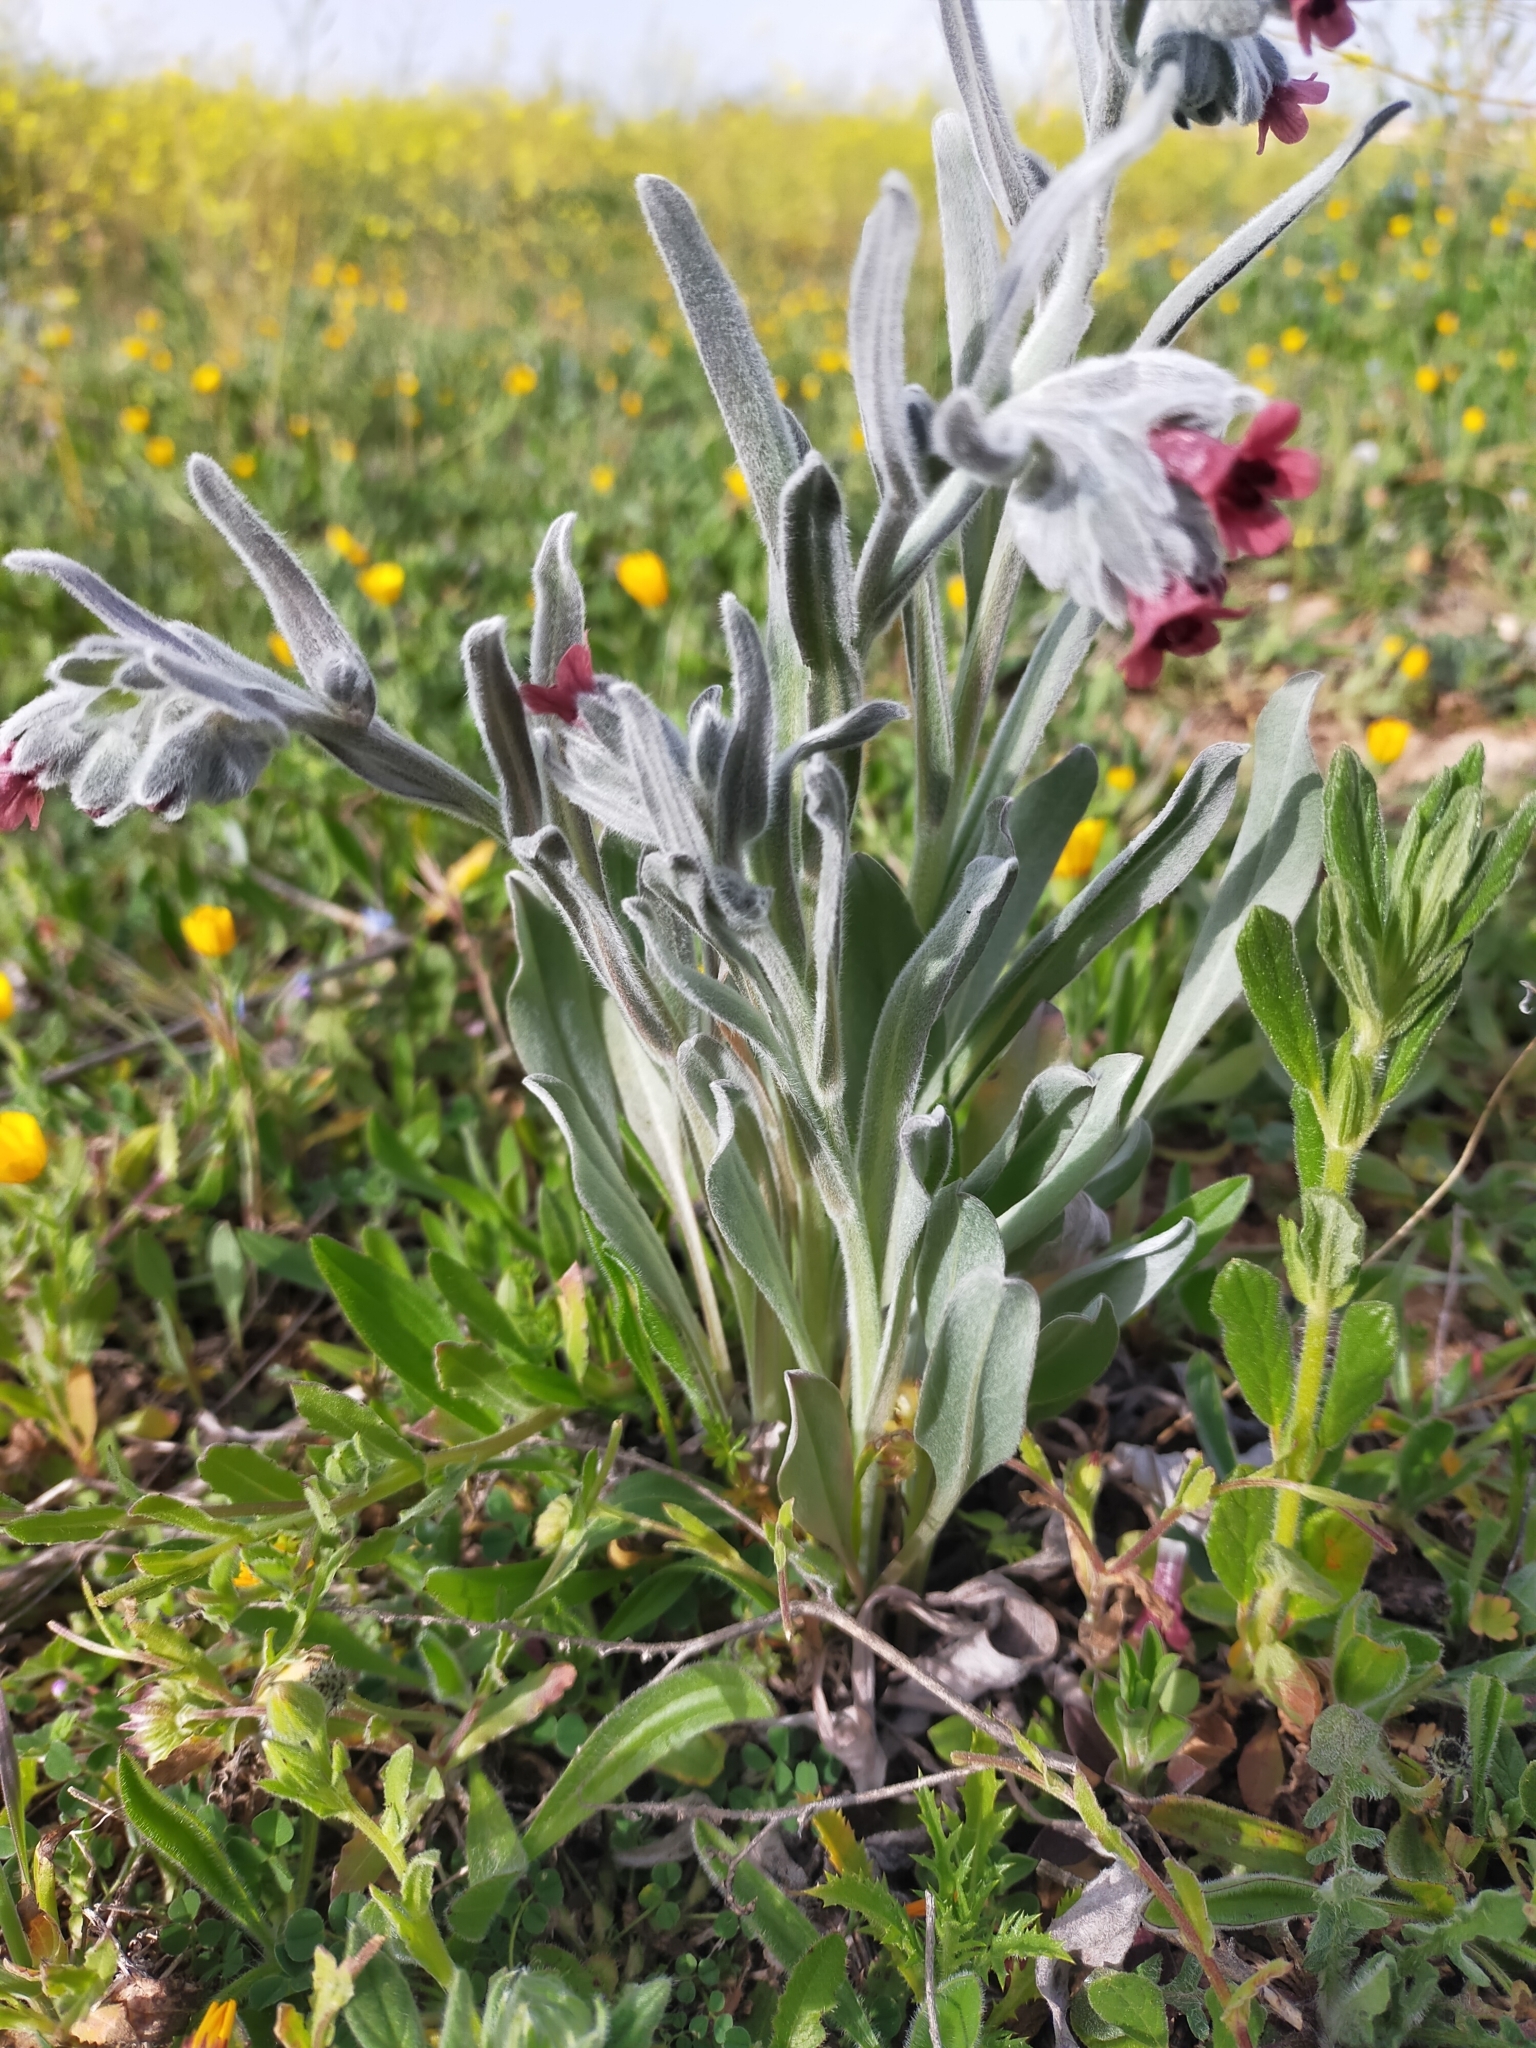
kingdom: Plantae
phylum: Tracheophyta
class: Magnoliopsida
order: Boraginales
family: Boraginaceae
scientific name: Boraginaceae
